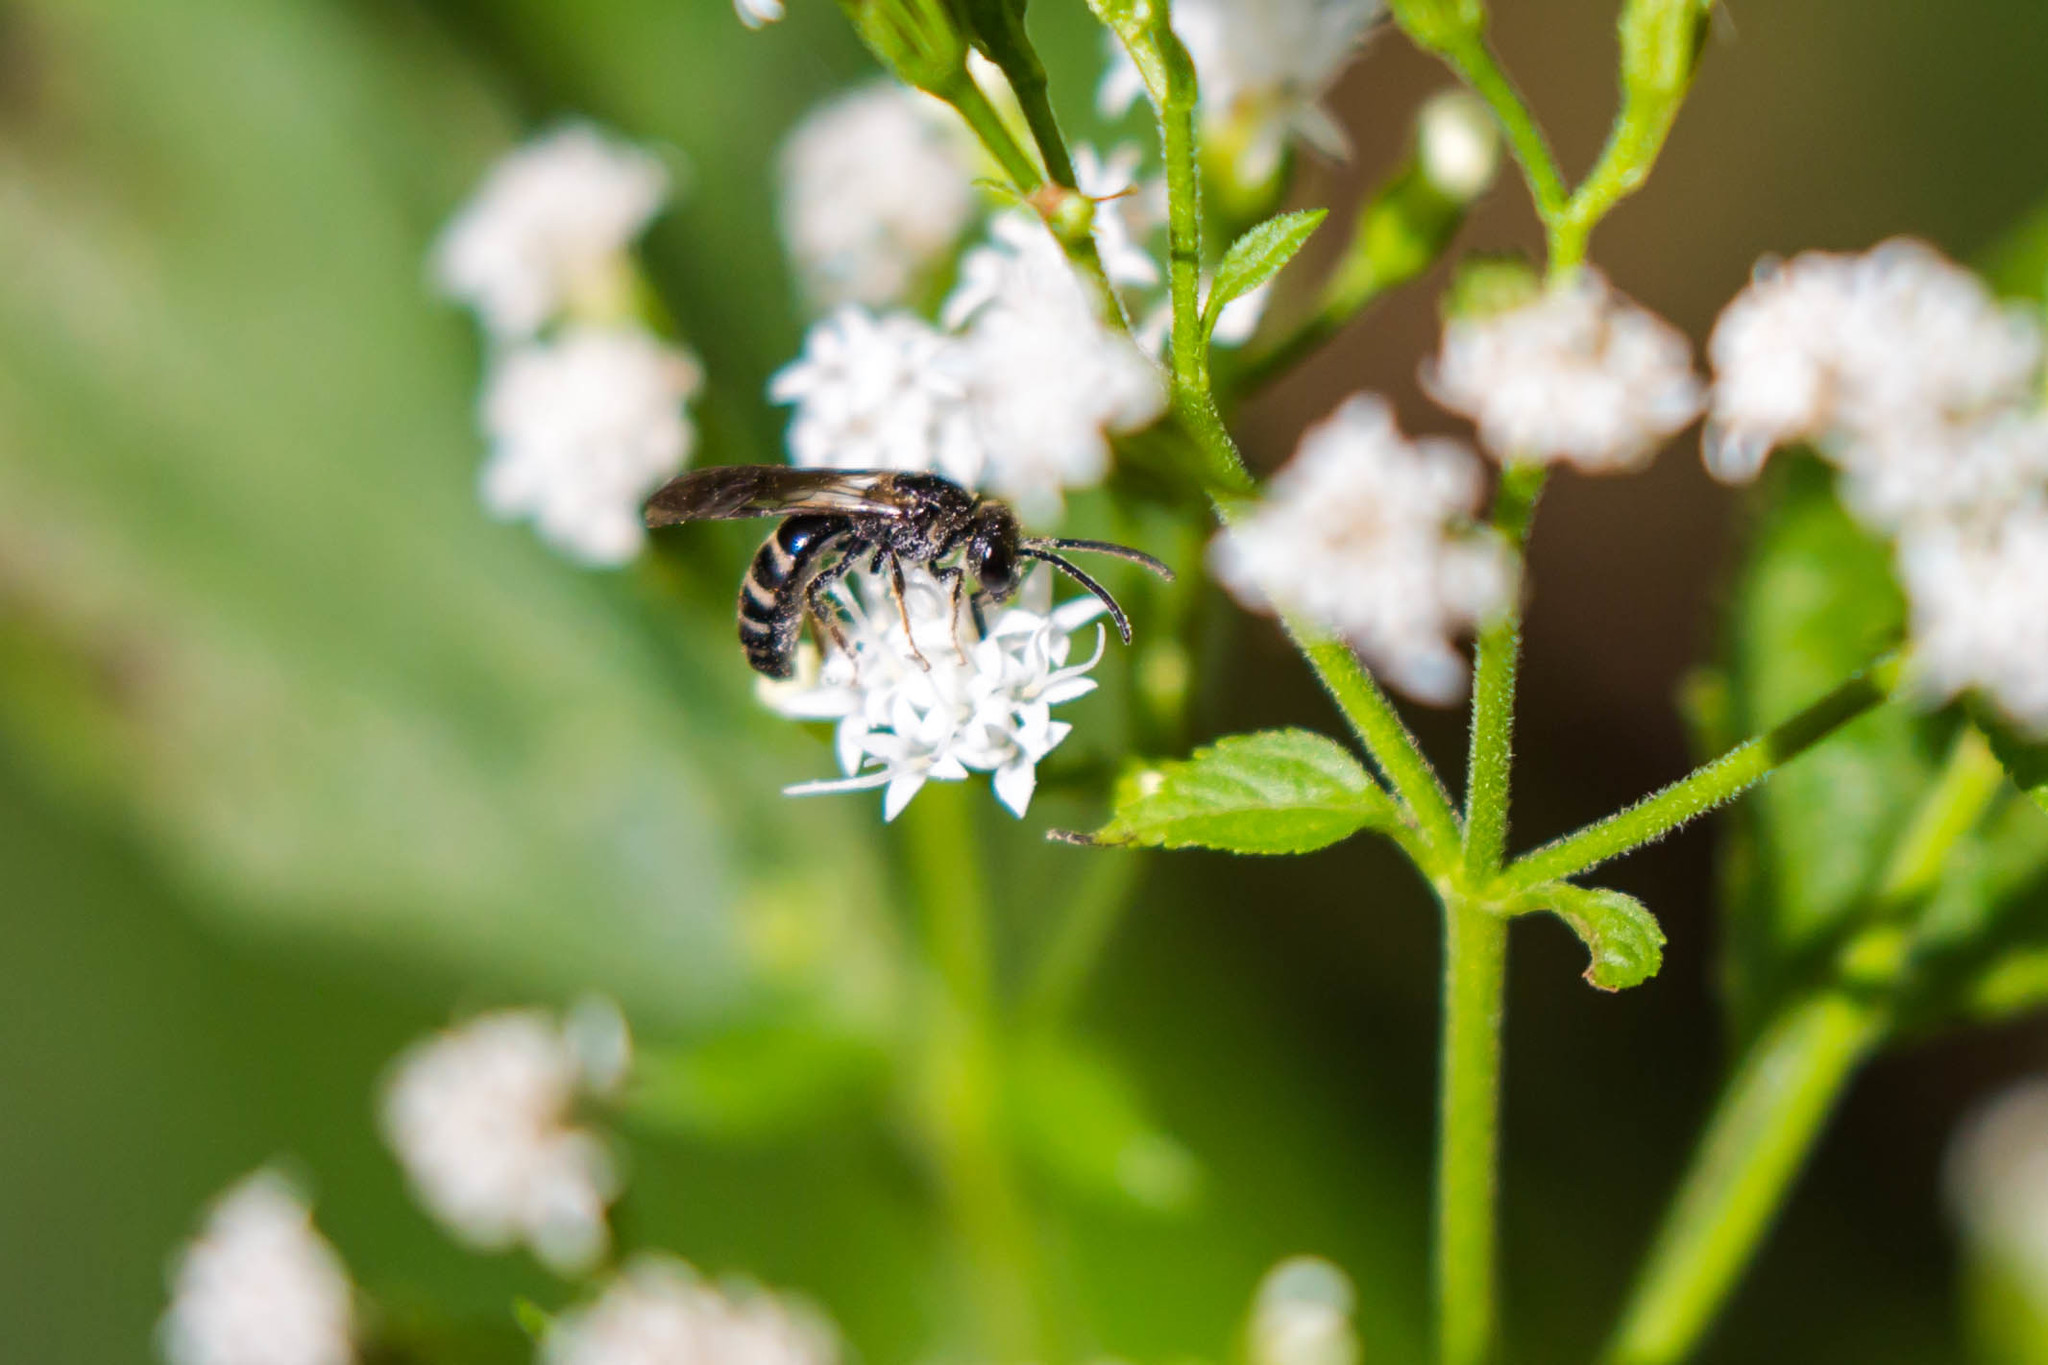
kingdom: Animalia
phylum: Arthropoda
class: Insecta
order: Hymenoptera
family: Halictidae
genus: Lasioglossum
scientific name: Lasioglossum fuscipenne
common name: Brown-winged sweat bee
